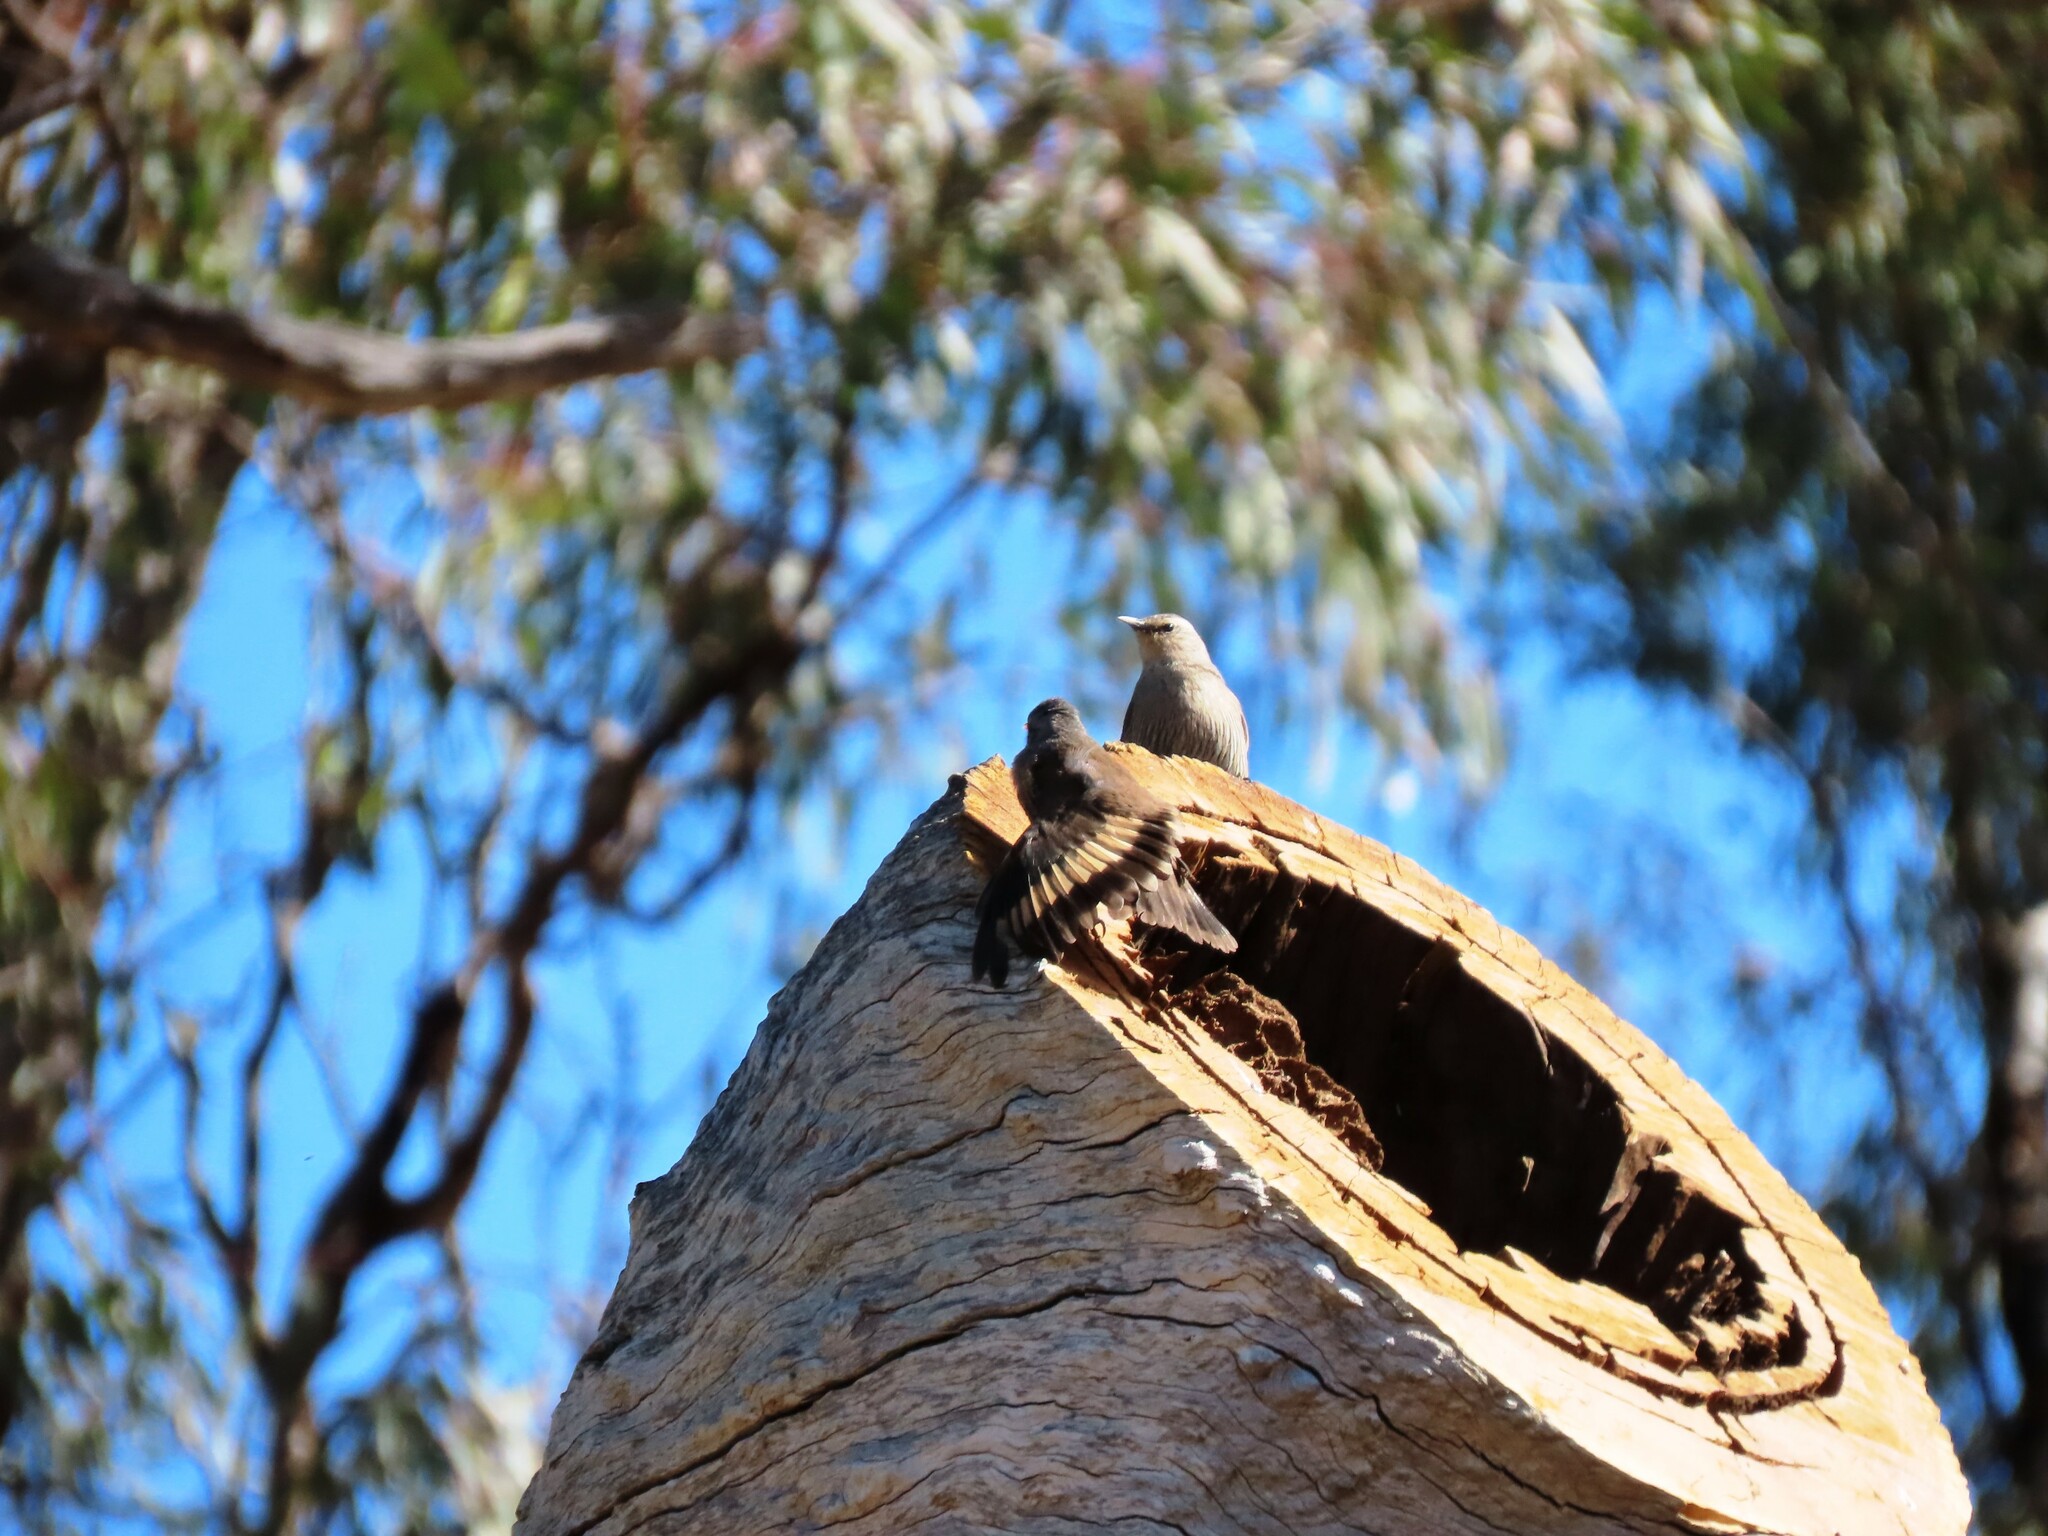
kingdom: Animalia
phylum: Chordata
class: Aves
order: Passeriformes
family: Climacteridae
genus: Climacteris
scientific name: Climacteris picumnus
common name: Brown treecreeper
